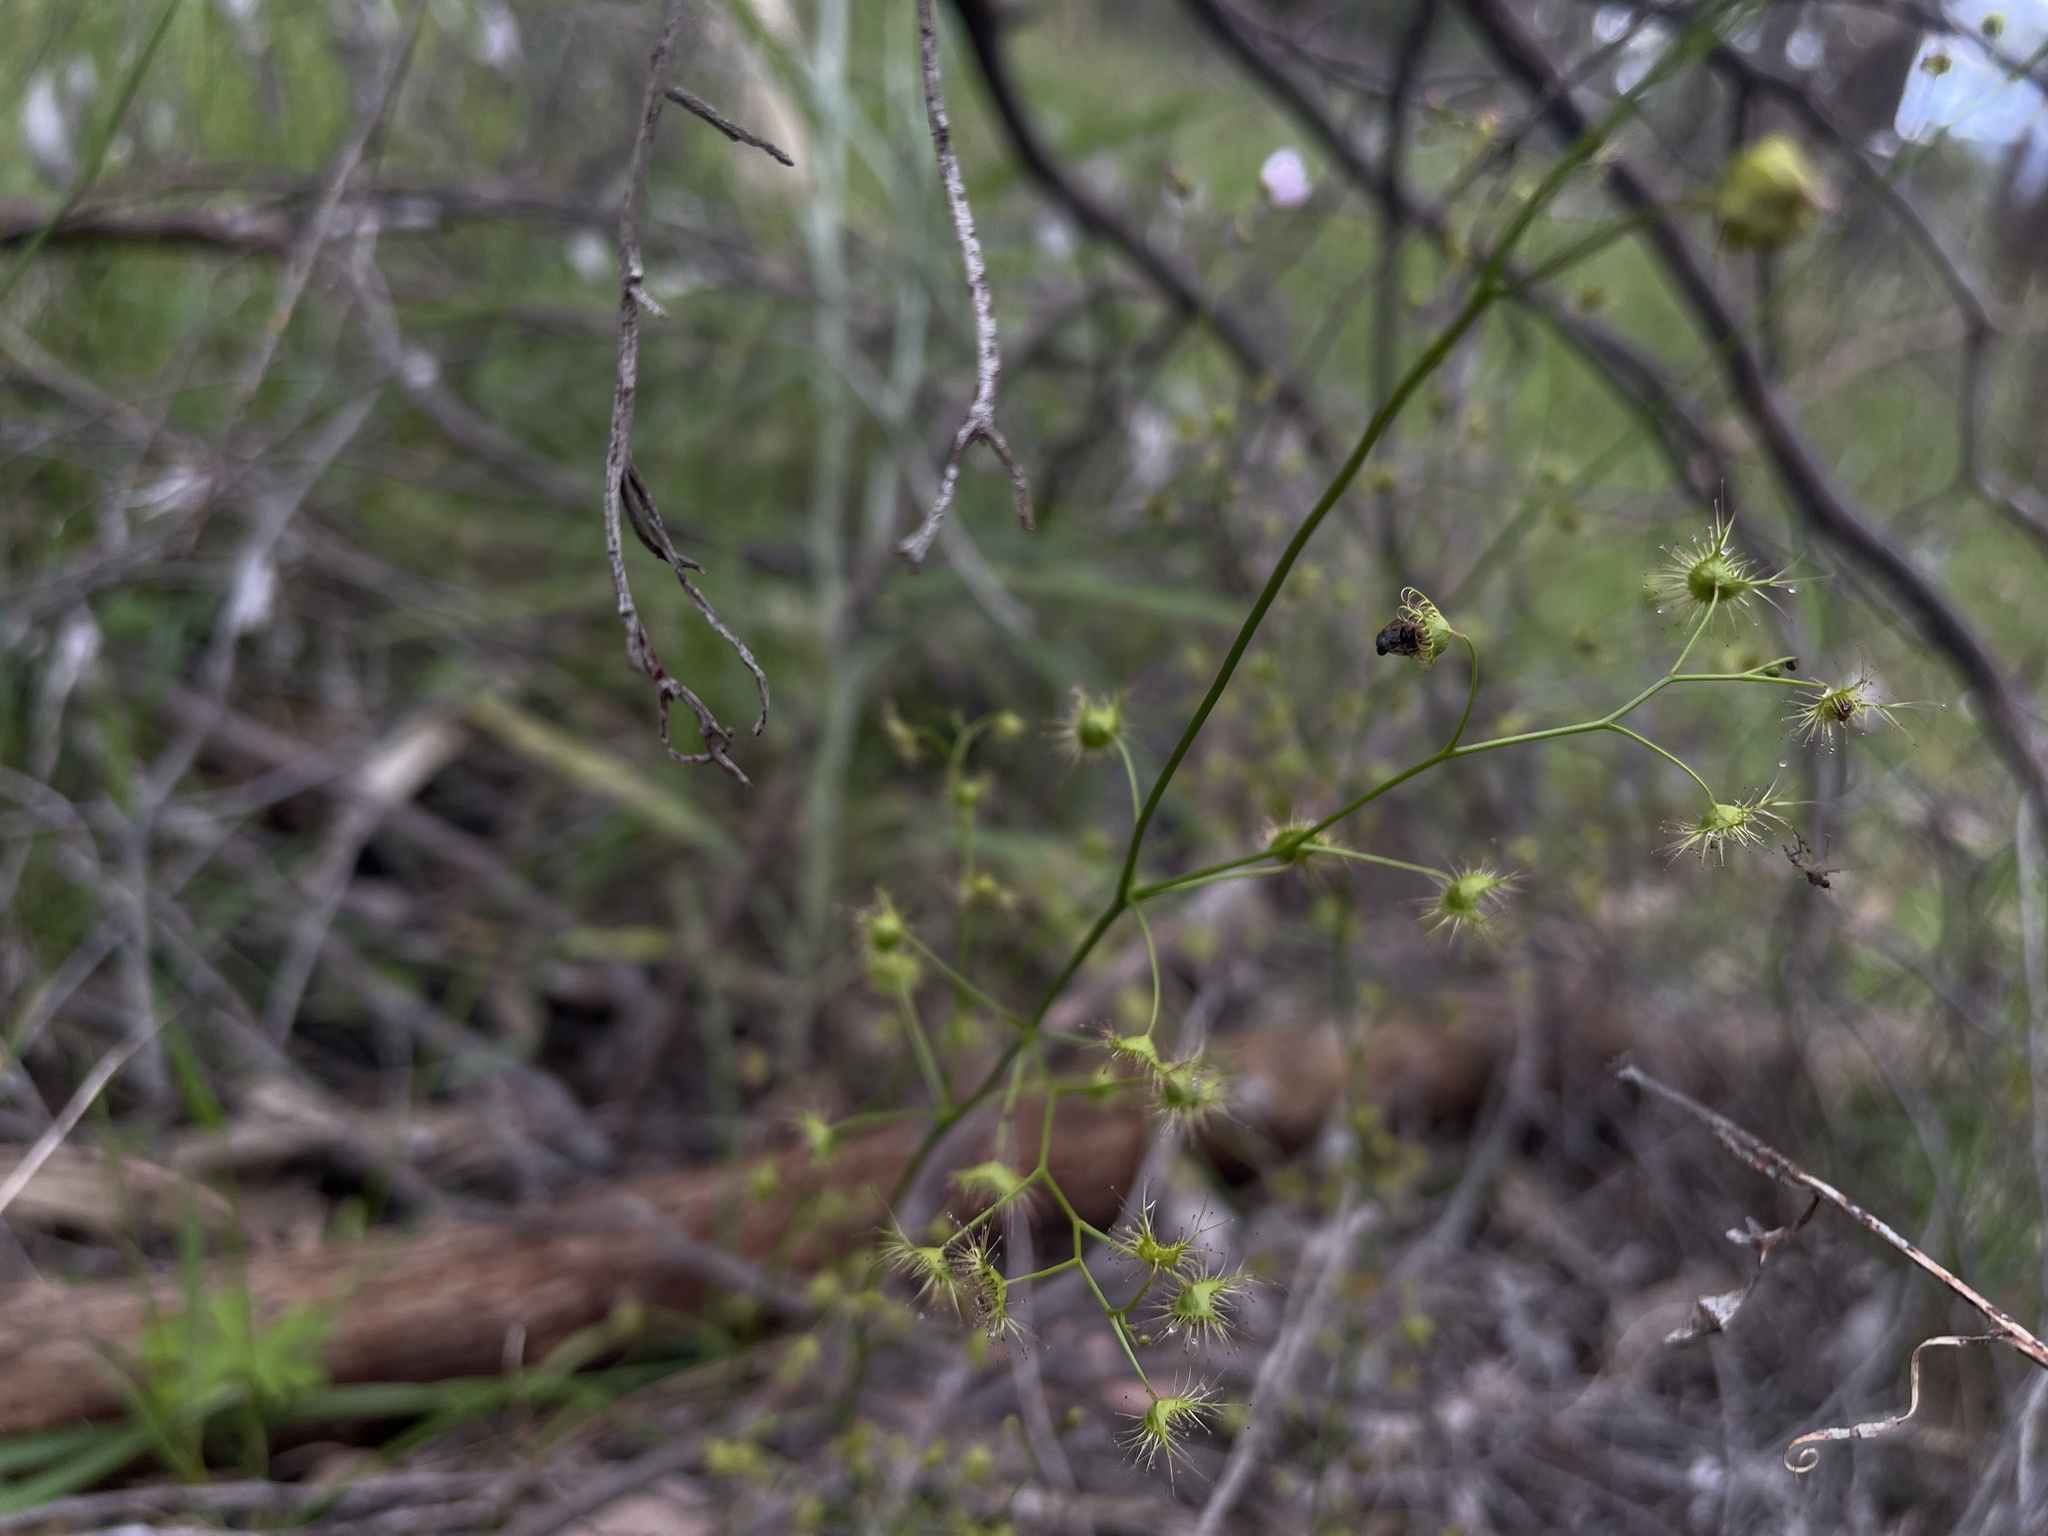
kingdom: Plantae
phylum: Tracheophyta
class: Magnoliopsida
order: Caryophyllales
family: Droseraceae
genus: Drosera
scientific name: Drosera peltata
